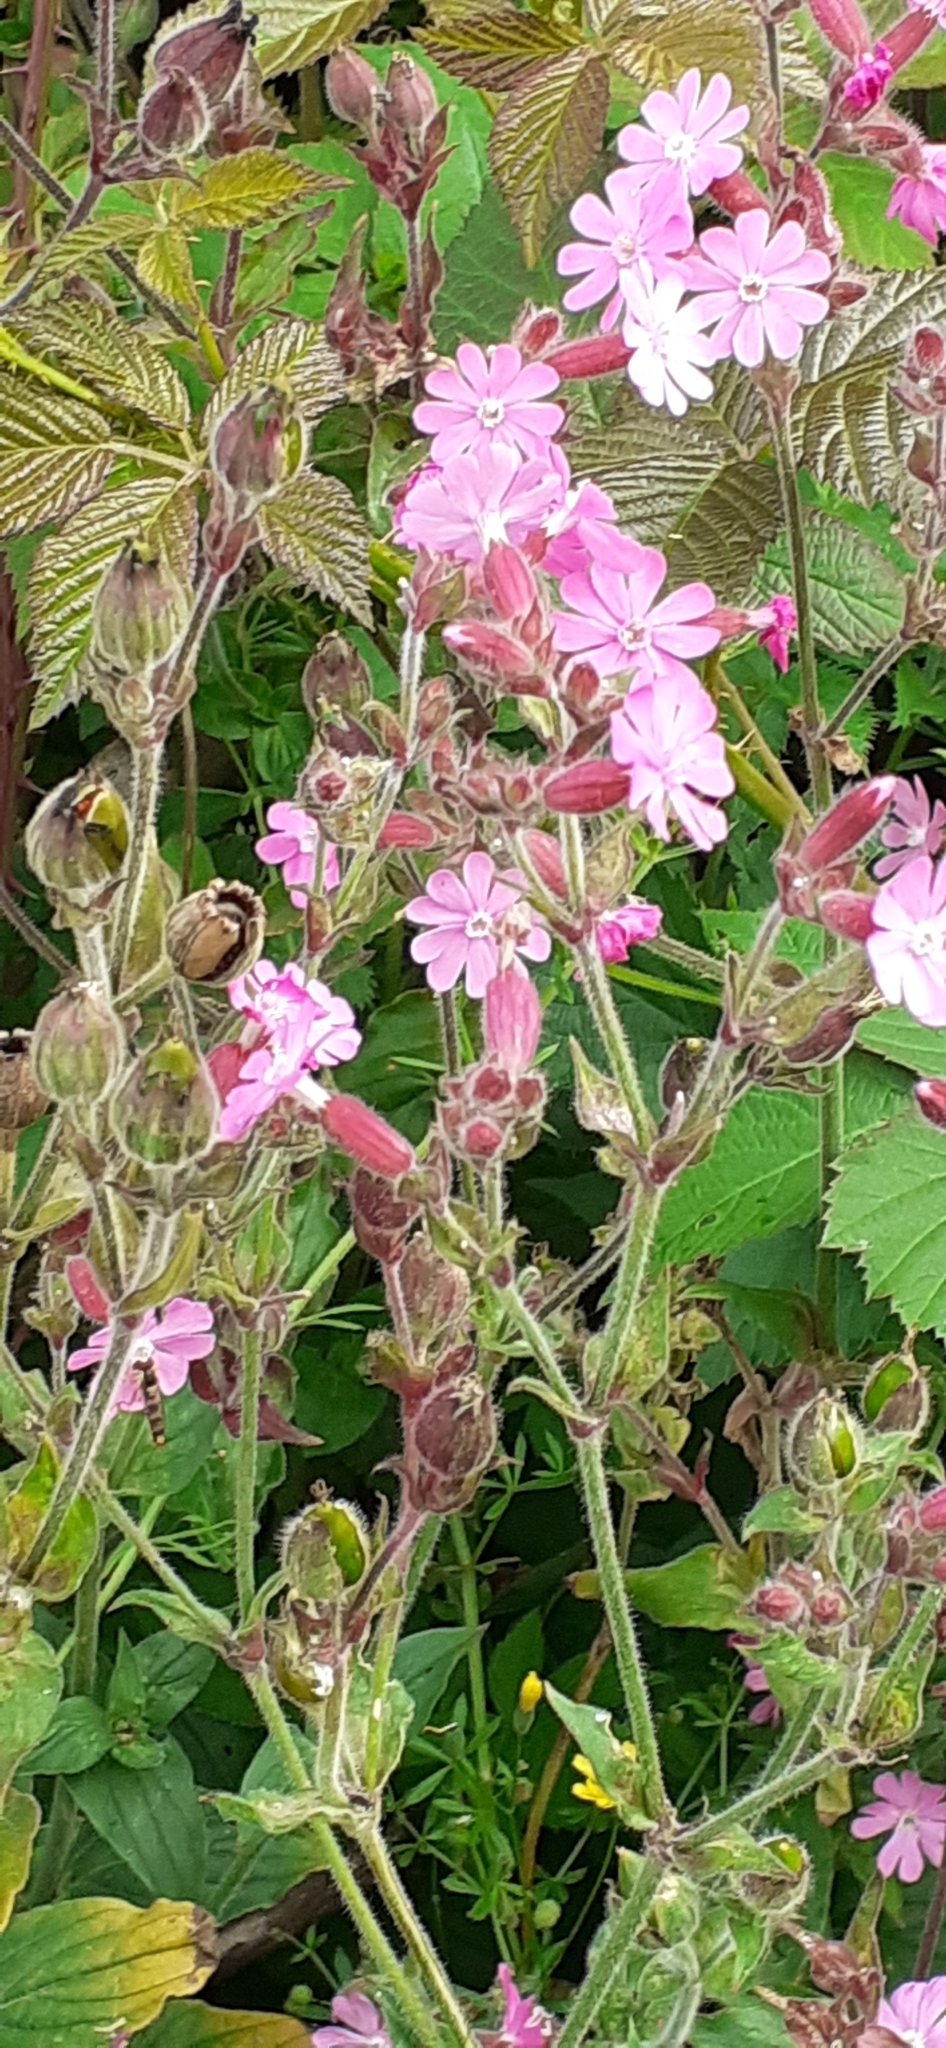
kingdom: Plantae
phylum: Tracheophyta
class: Magnoliopsida
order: Caryophyllales
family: Caryophyllaceae
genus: Silene
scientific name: Silene dioica
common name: Red campion
